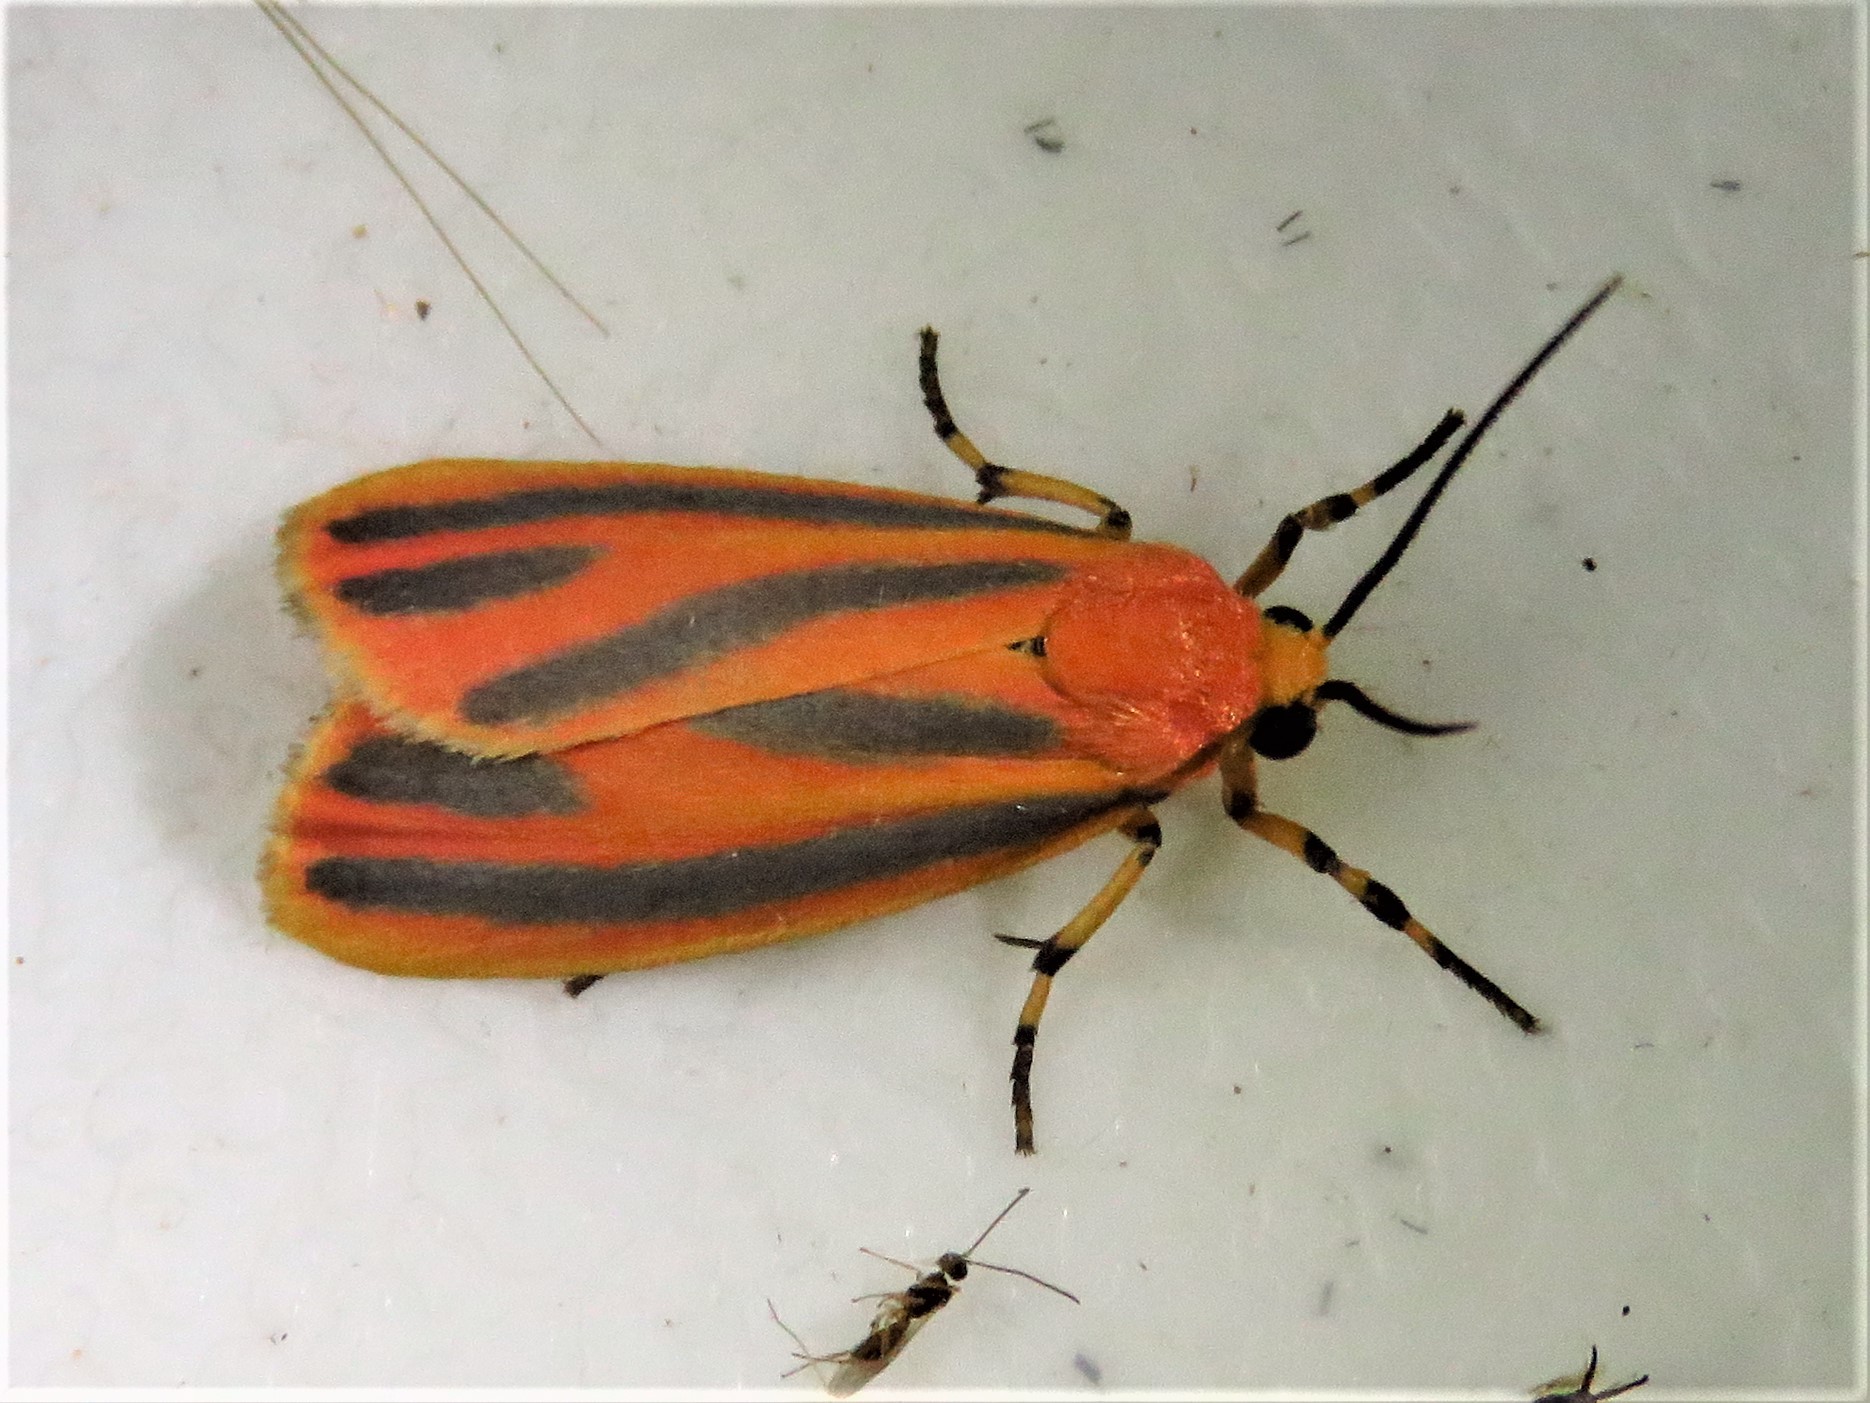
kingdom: Animalia
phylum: Arthropoda
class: Insecta
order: Lepidoptera
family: Erebidae
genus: Hypoprepia
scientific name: Hypoprepia fucosa
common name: Painted lichen moth
